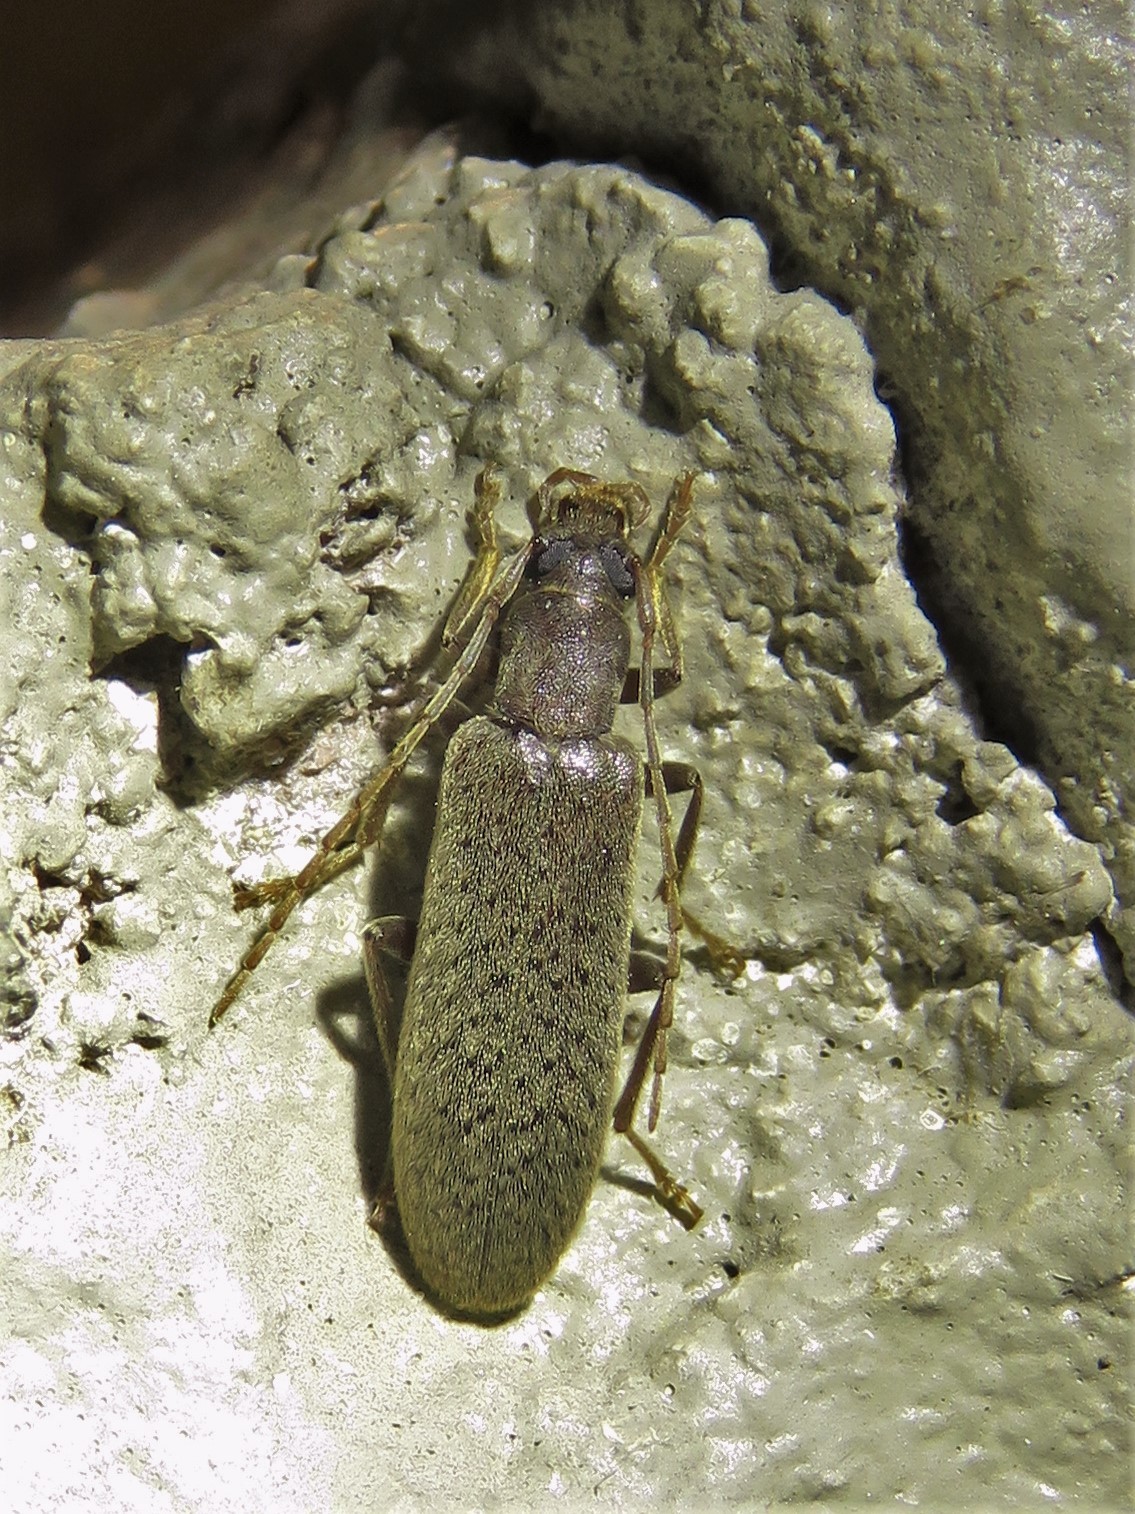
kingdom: Animalia
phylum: Arthropoda
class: Insecta
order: Coleoptera
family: Oedemeridae
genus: Sparedrus
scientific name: Sparedrus aspersus
